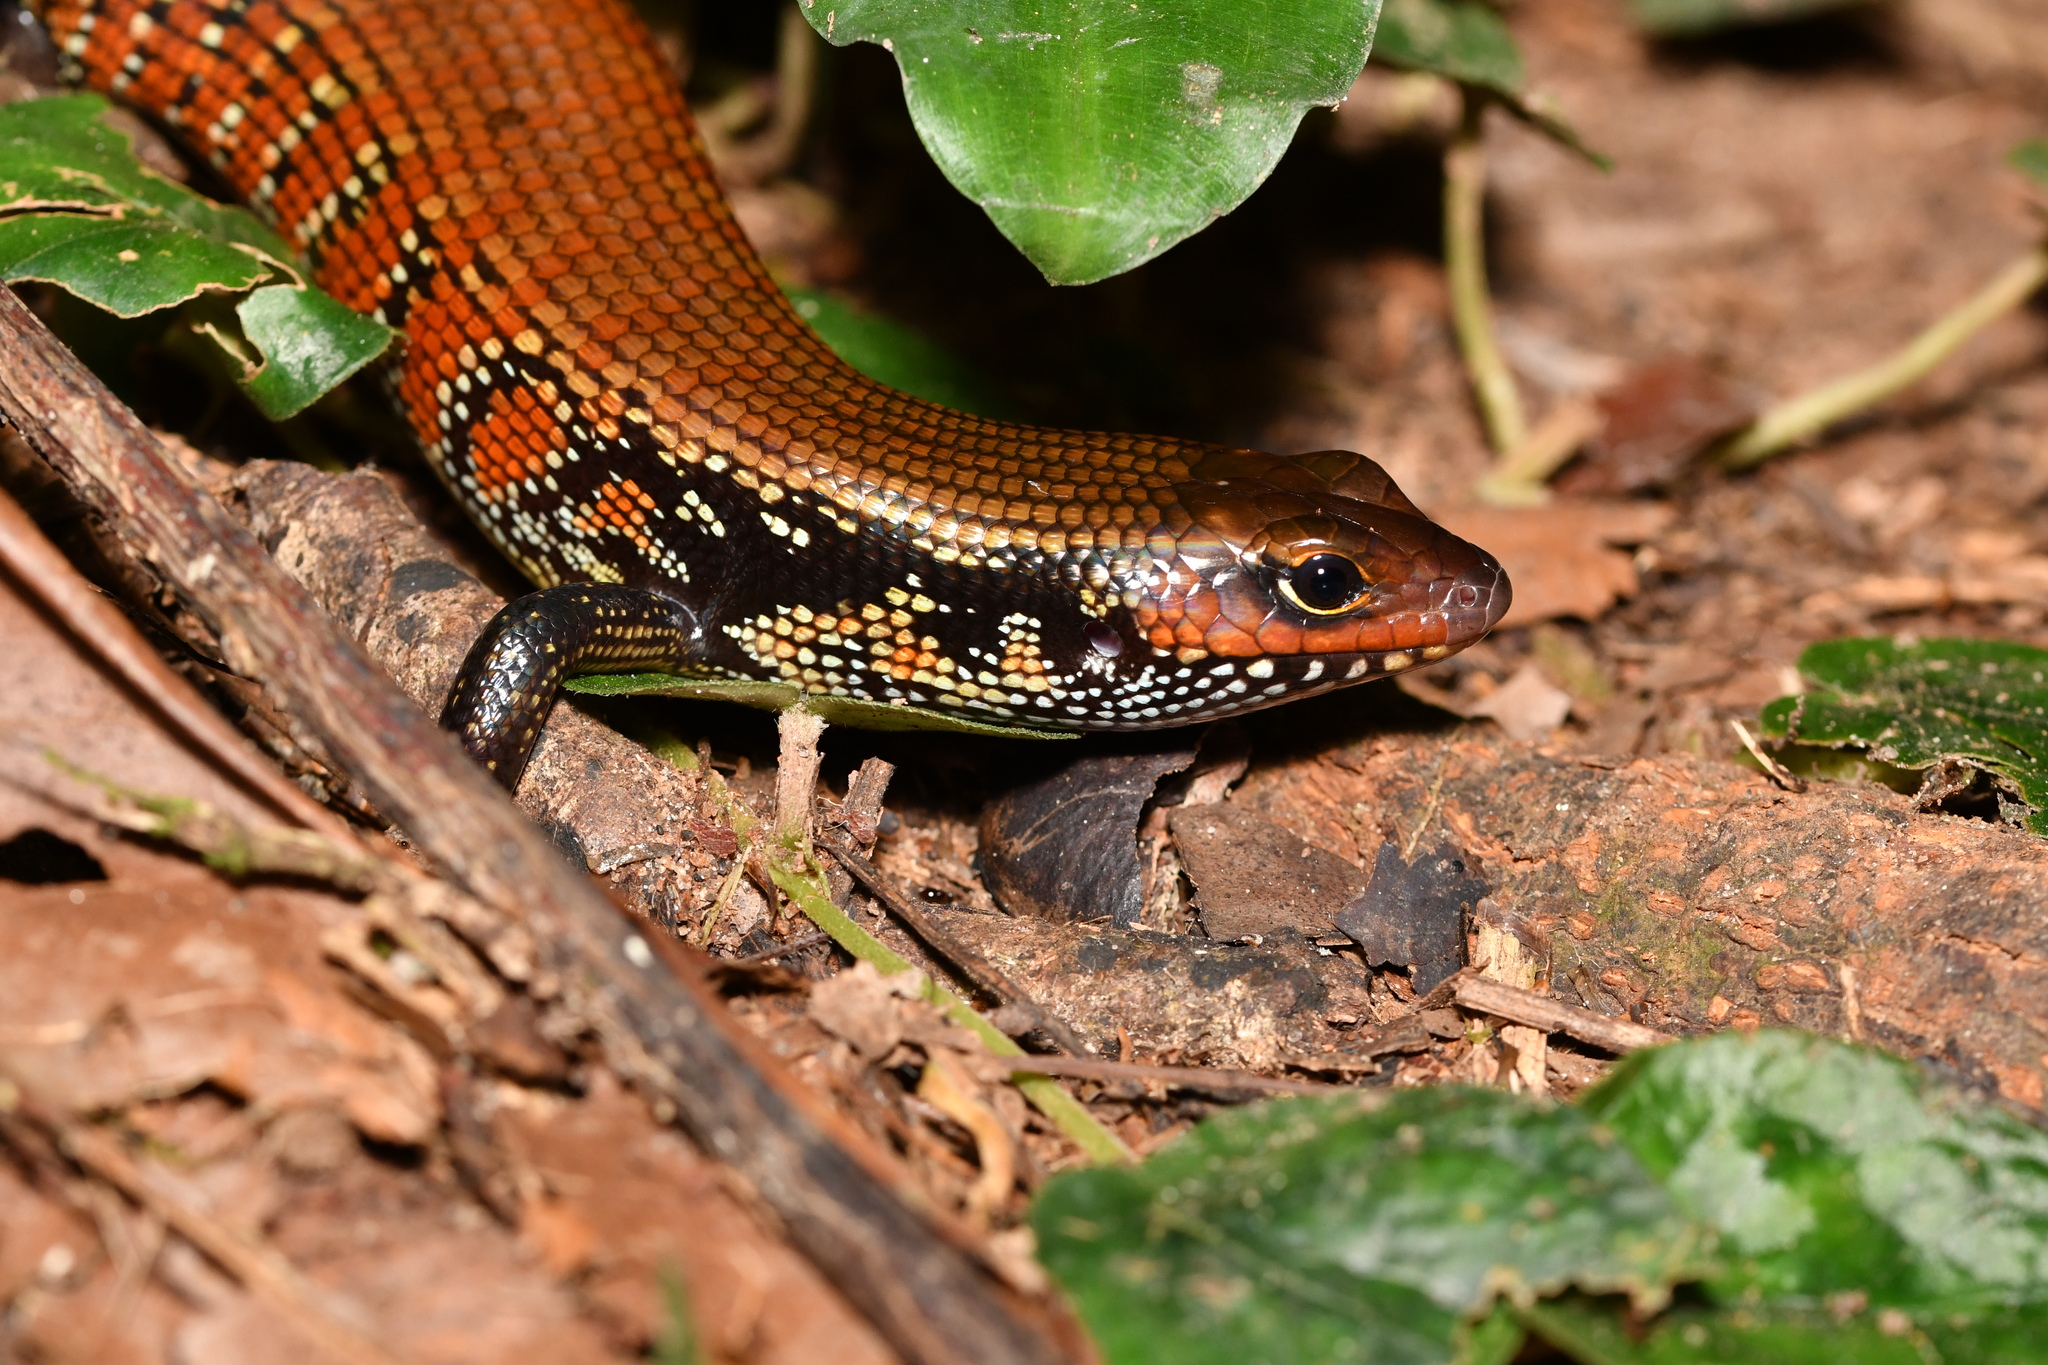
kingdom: Animalia
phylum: Chordata
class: Squamata
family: Scincidae
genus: Mochlus
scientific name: Mochlus fernandi
